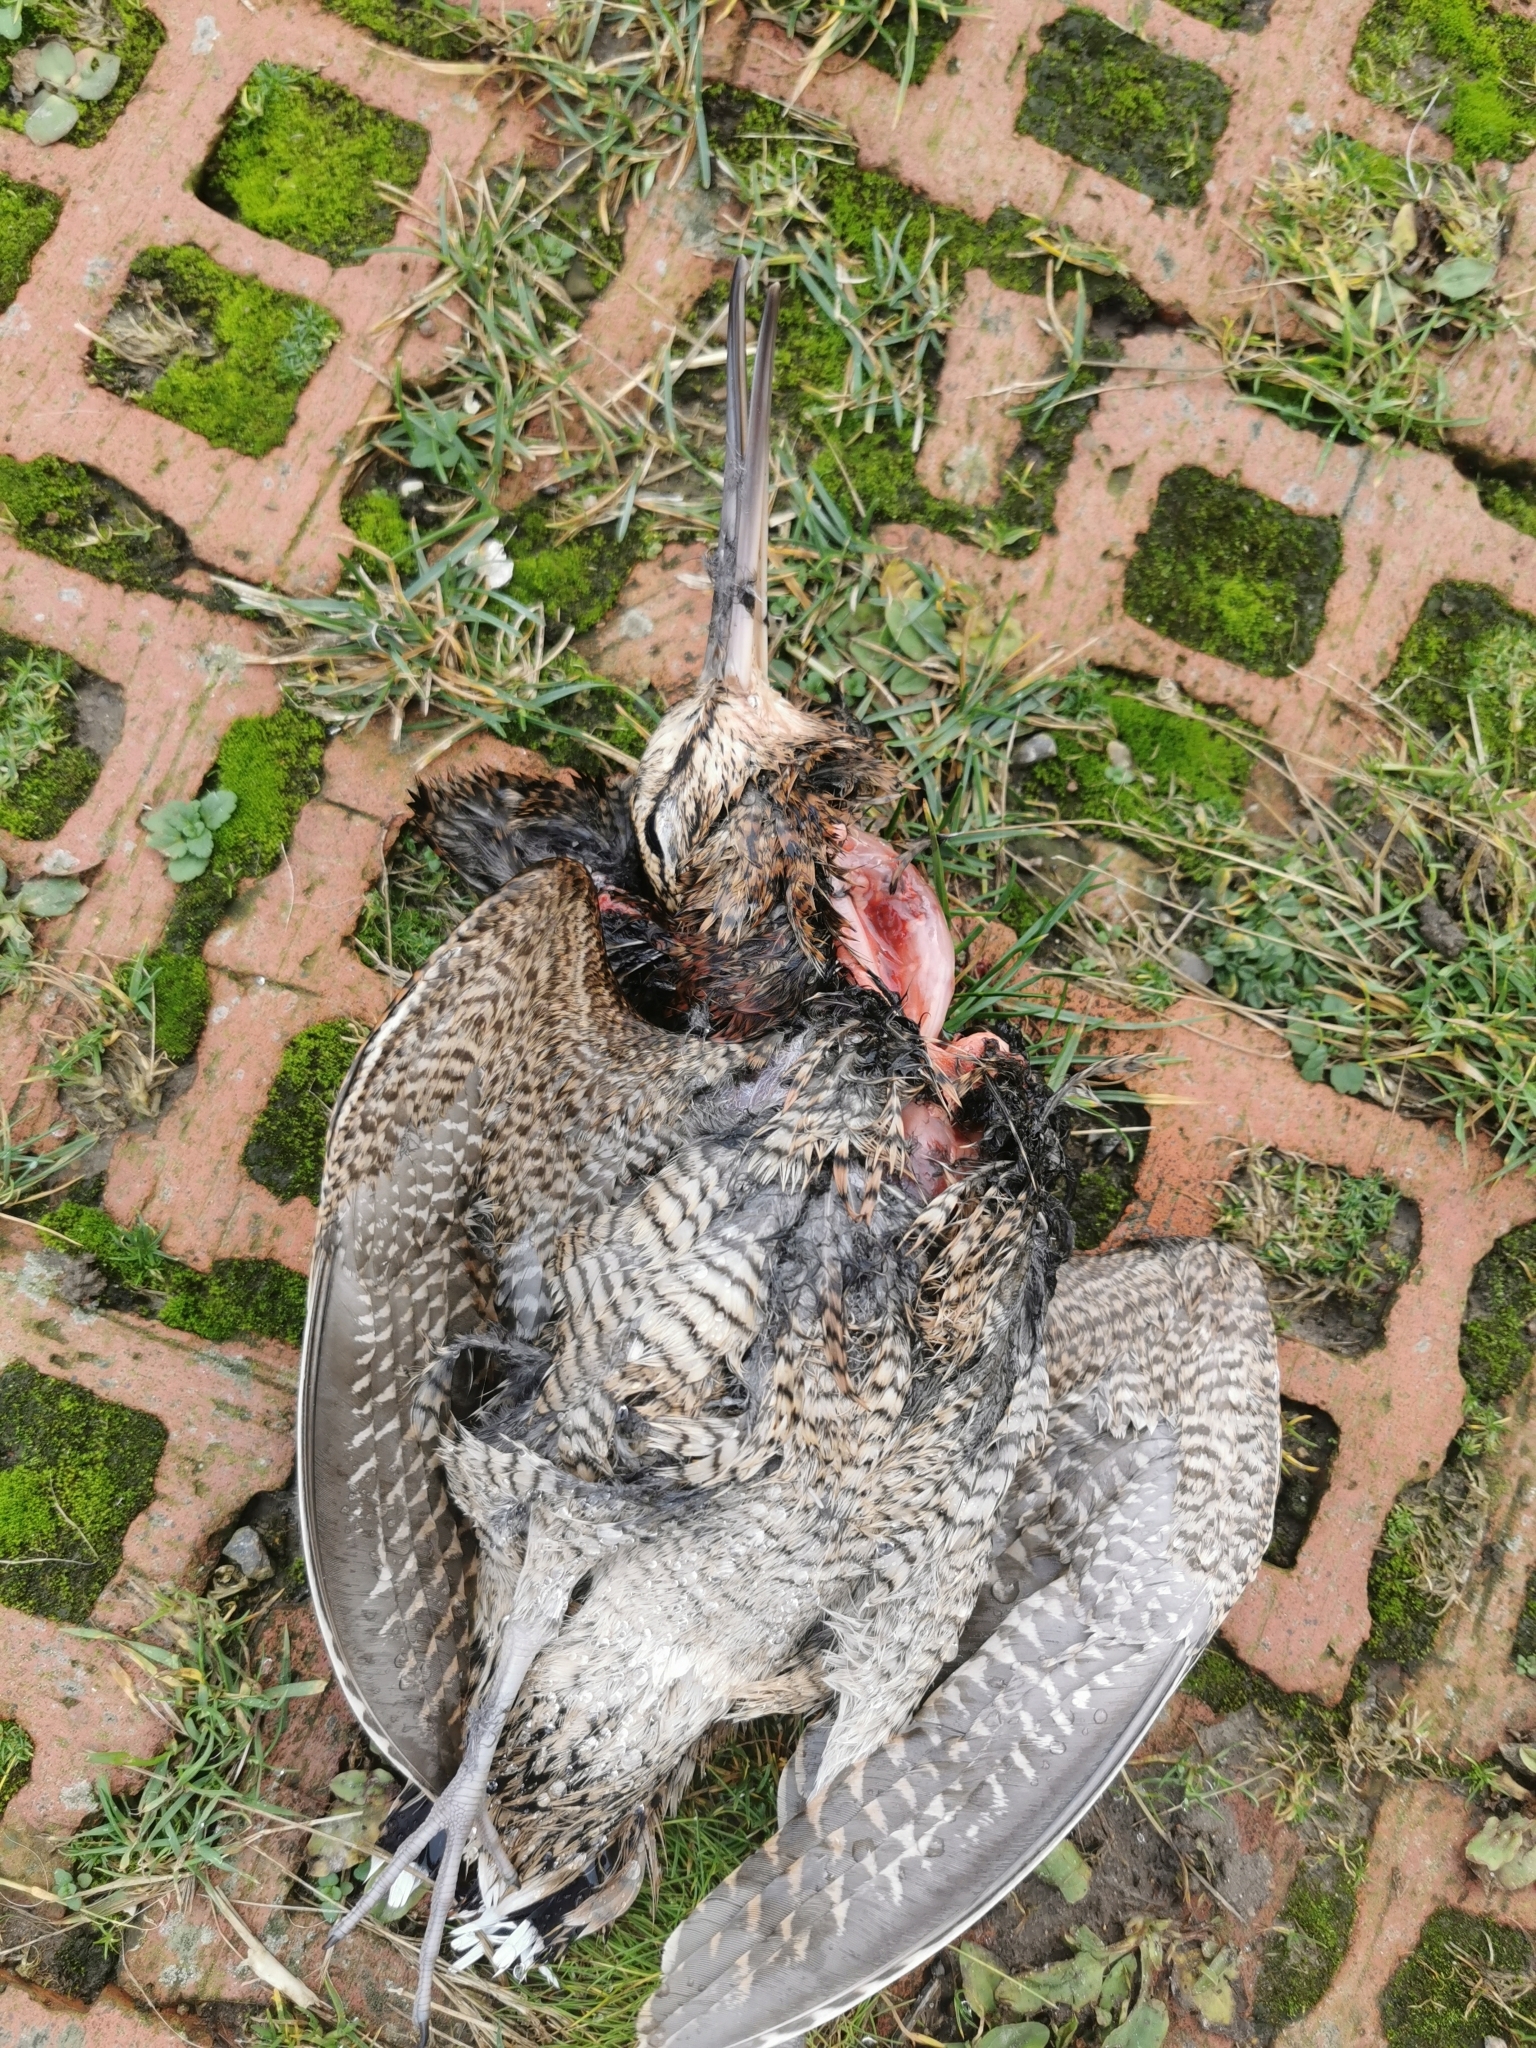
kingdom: Animalia
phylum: Chordata
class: Aves
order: Charadriiformes
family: Scolopacidae
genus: Scolopax
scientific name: Scolopax rusticola
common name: Eurasian woodcock
